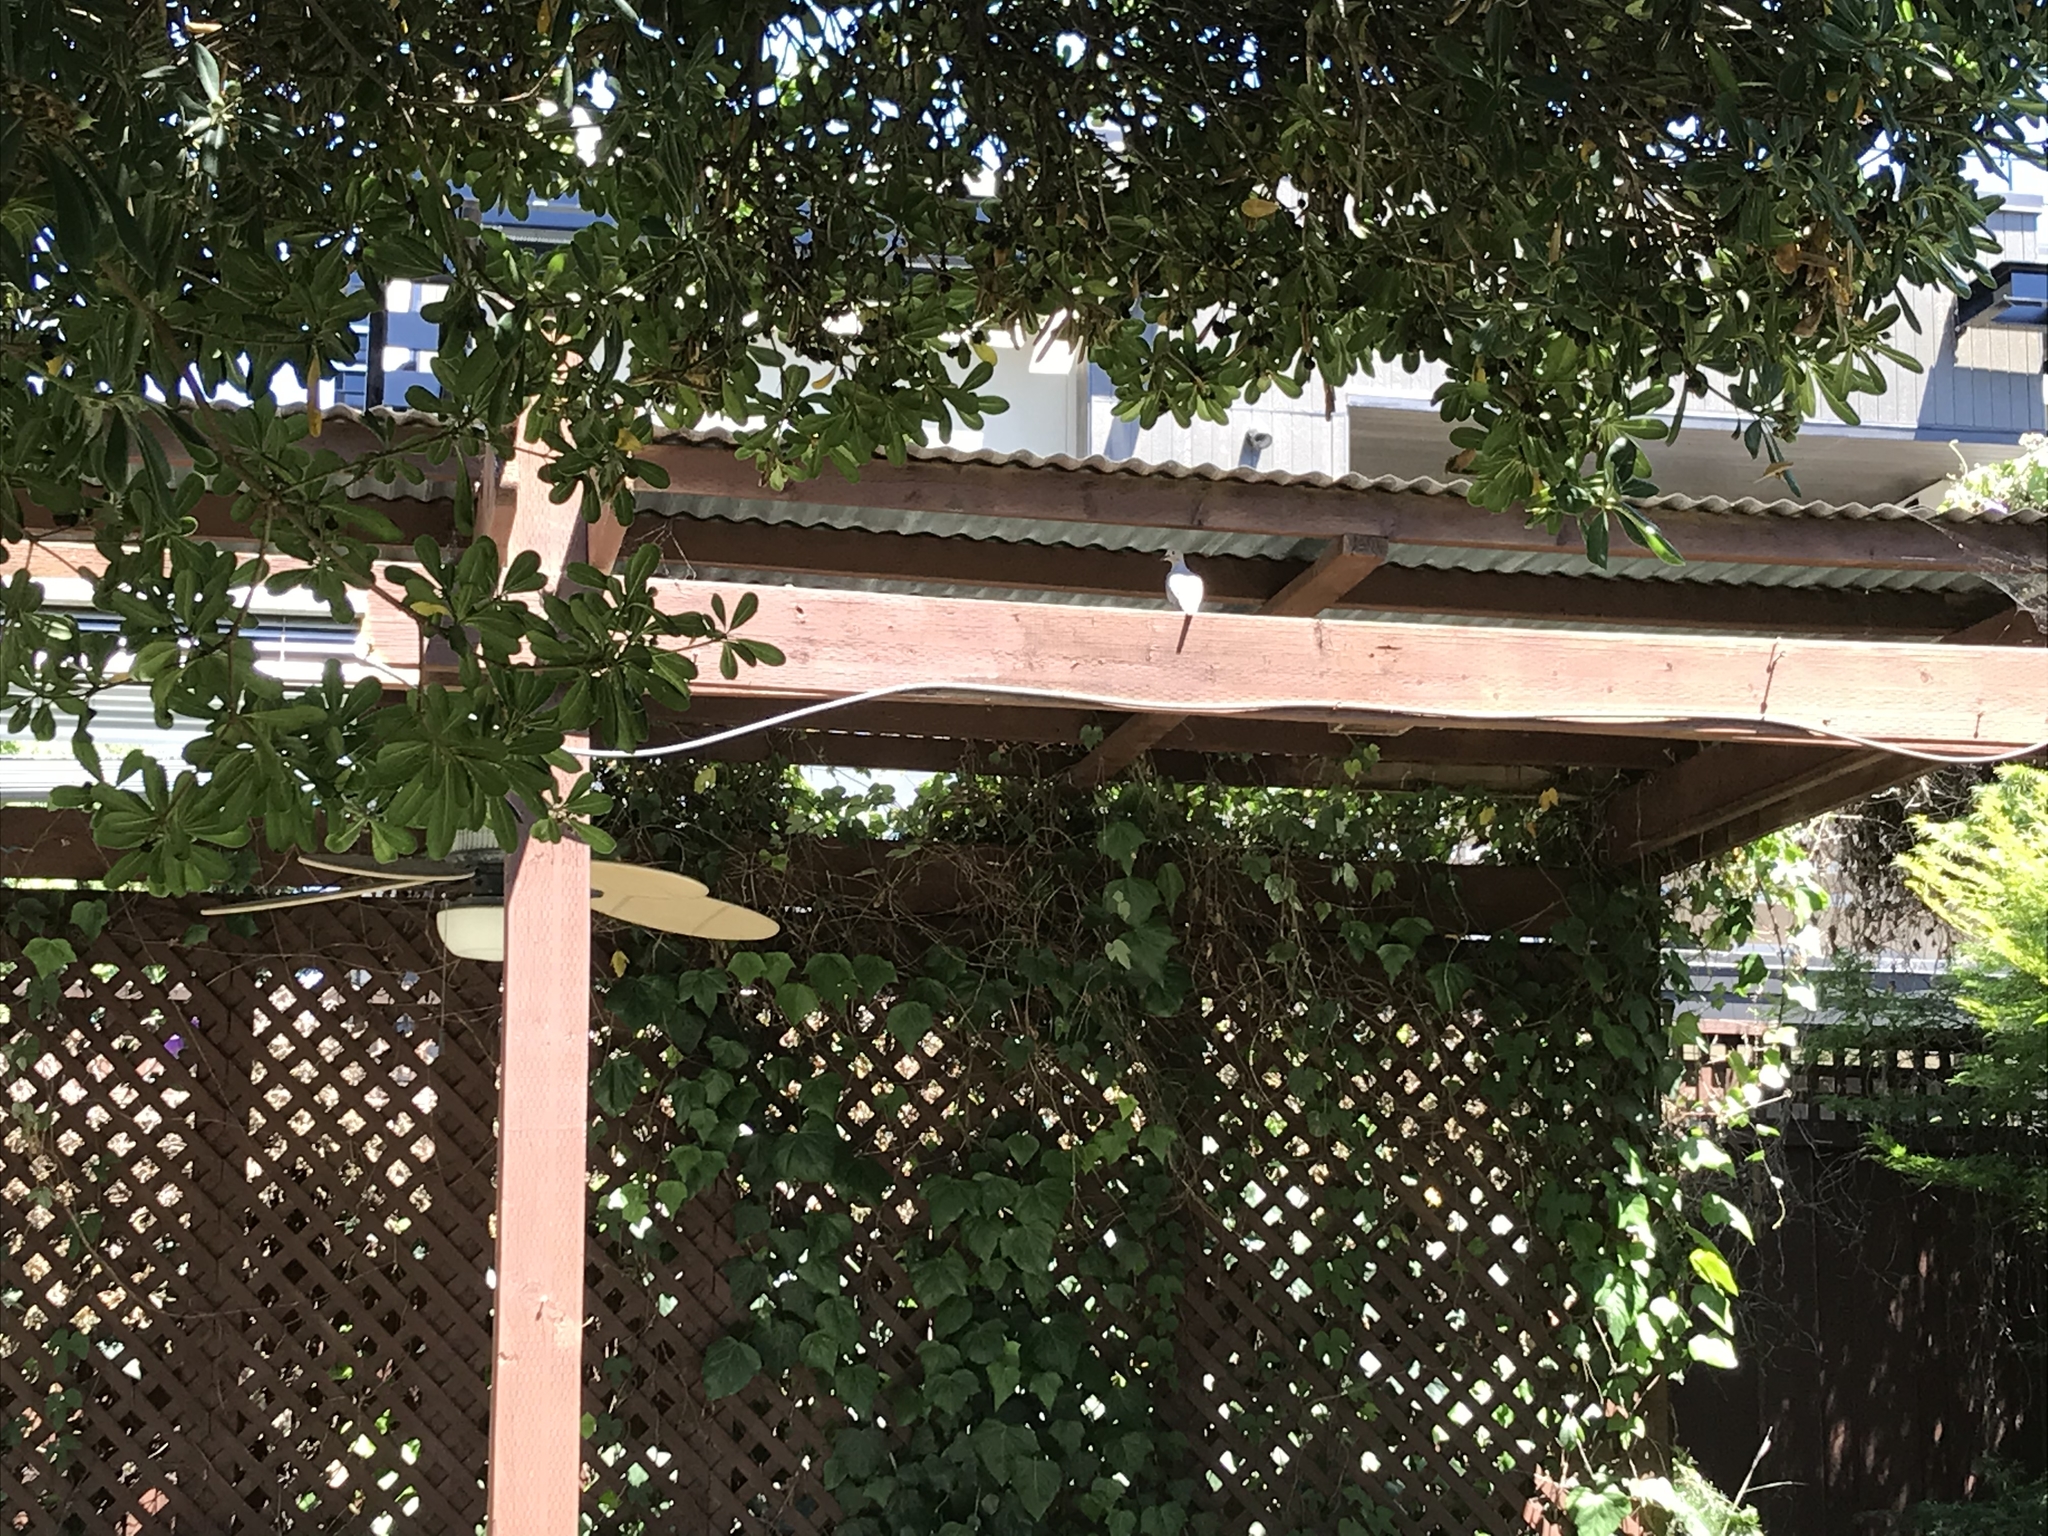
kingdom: Animalia
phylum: Chordata
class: Aves
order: Columbiformes
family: Columbidae
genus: Zenaida
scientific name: Zenaida macroura
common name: Mourning dove
